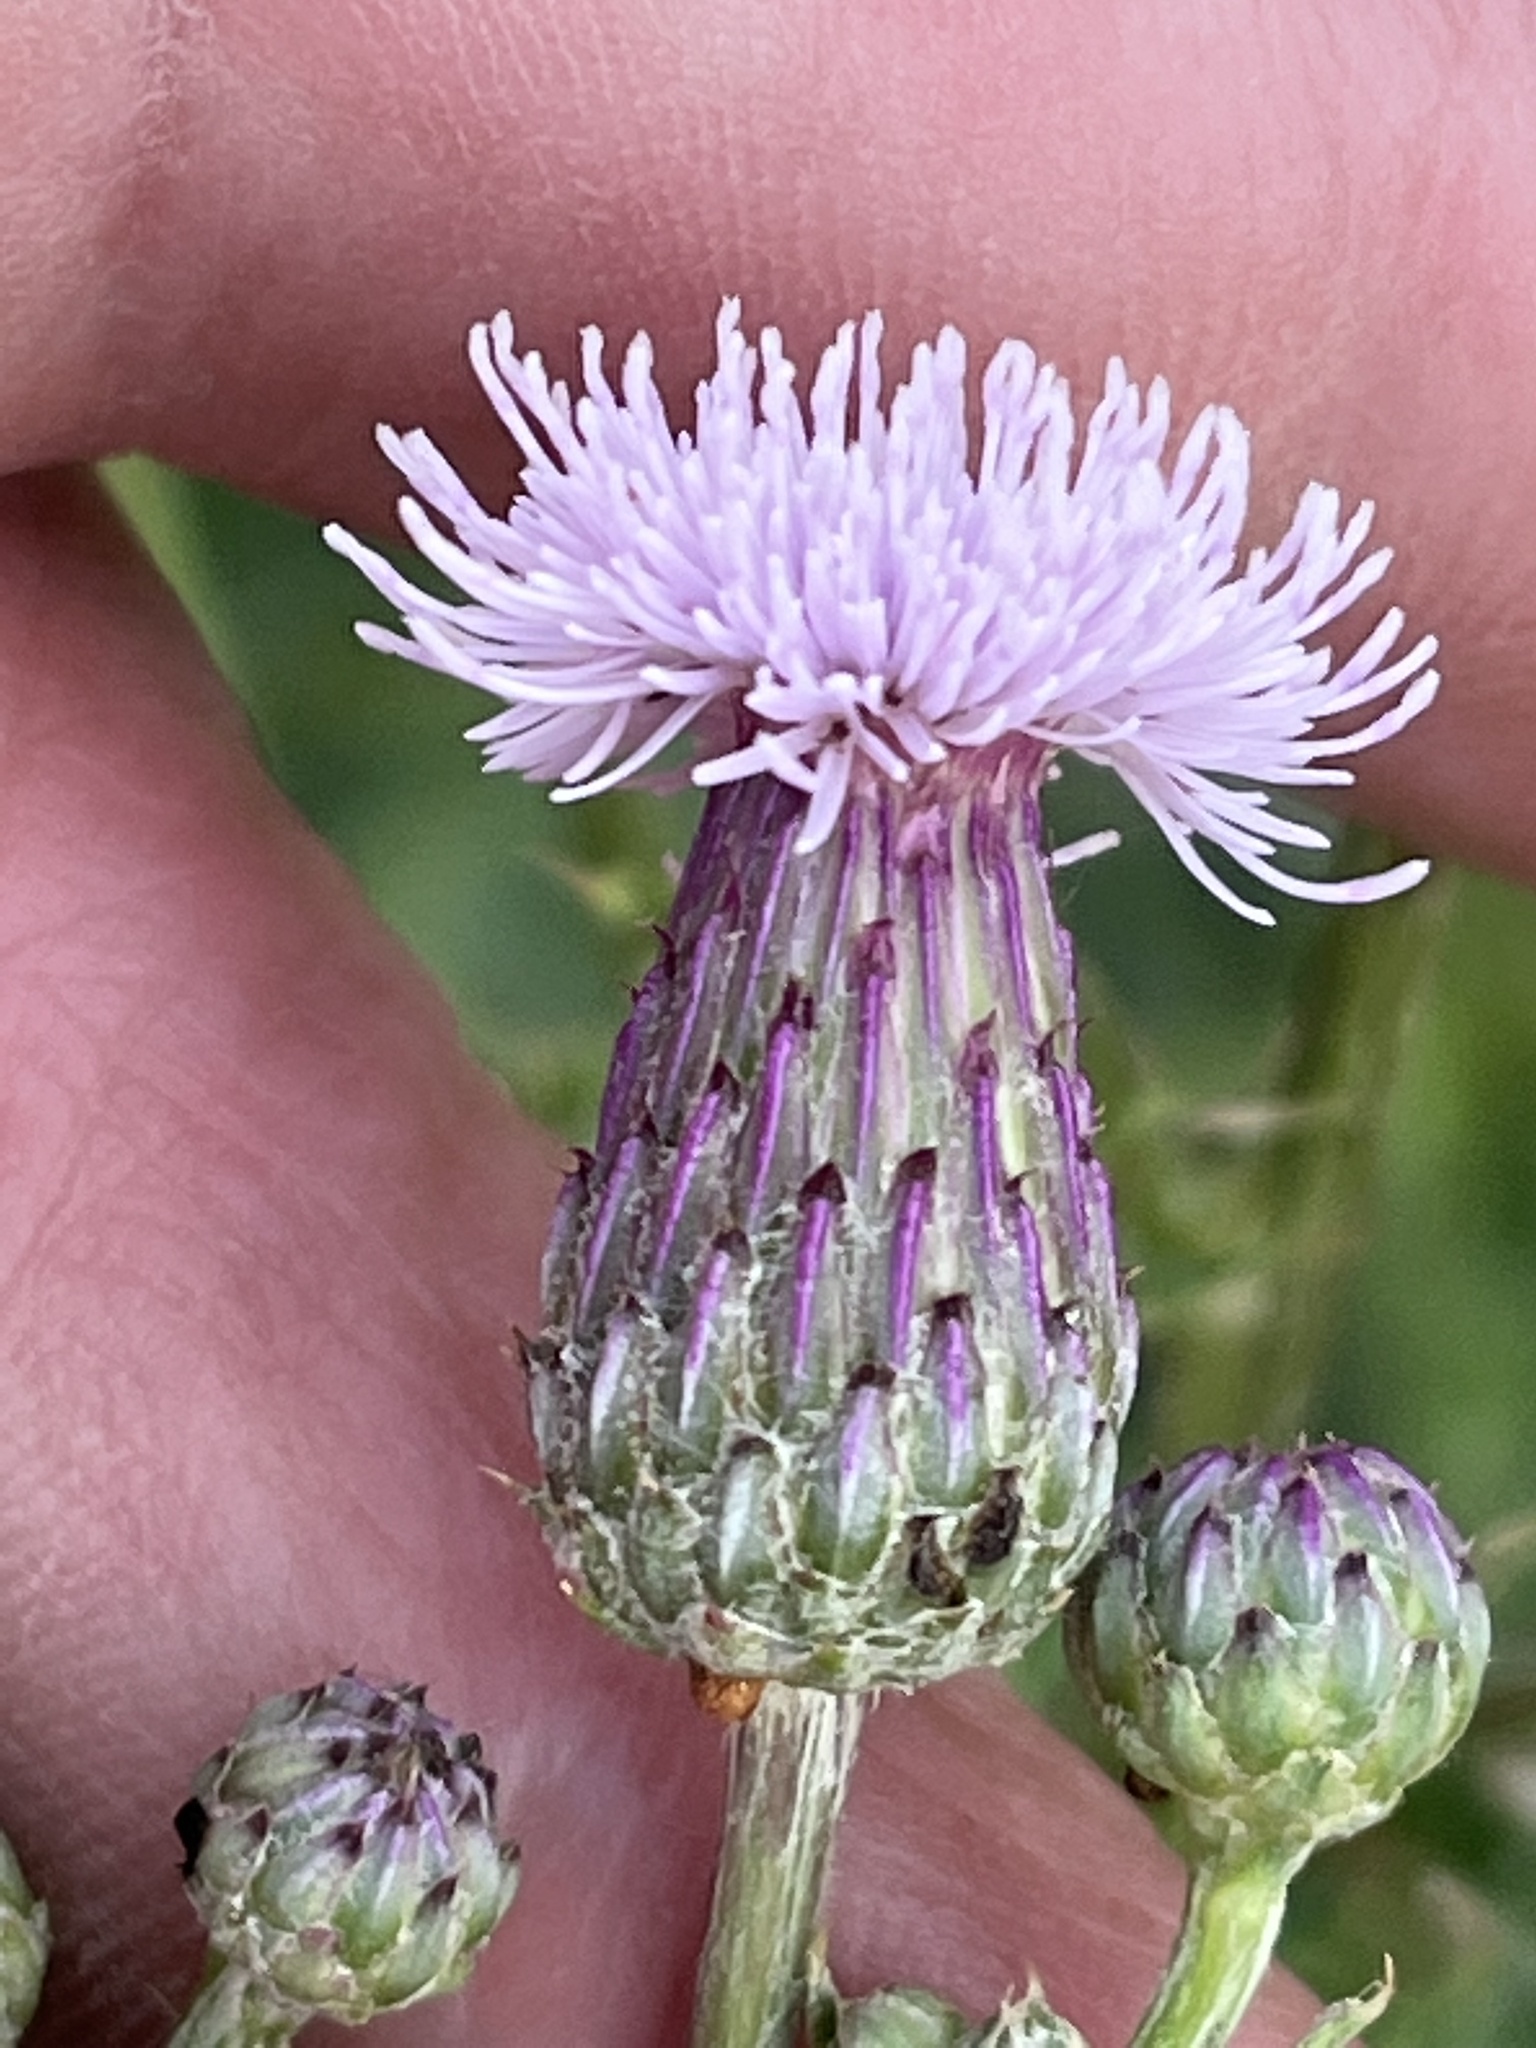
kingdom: Plantae
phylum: Tracheophyta
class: Magnoliopsida
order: Asterales
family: Asteraceae
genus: Cirsium
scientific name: Cirsium arvense
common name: Creeping thistle
